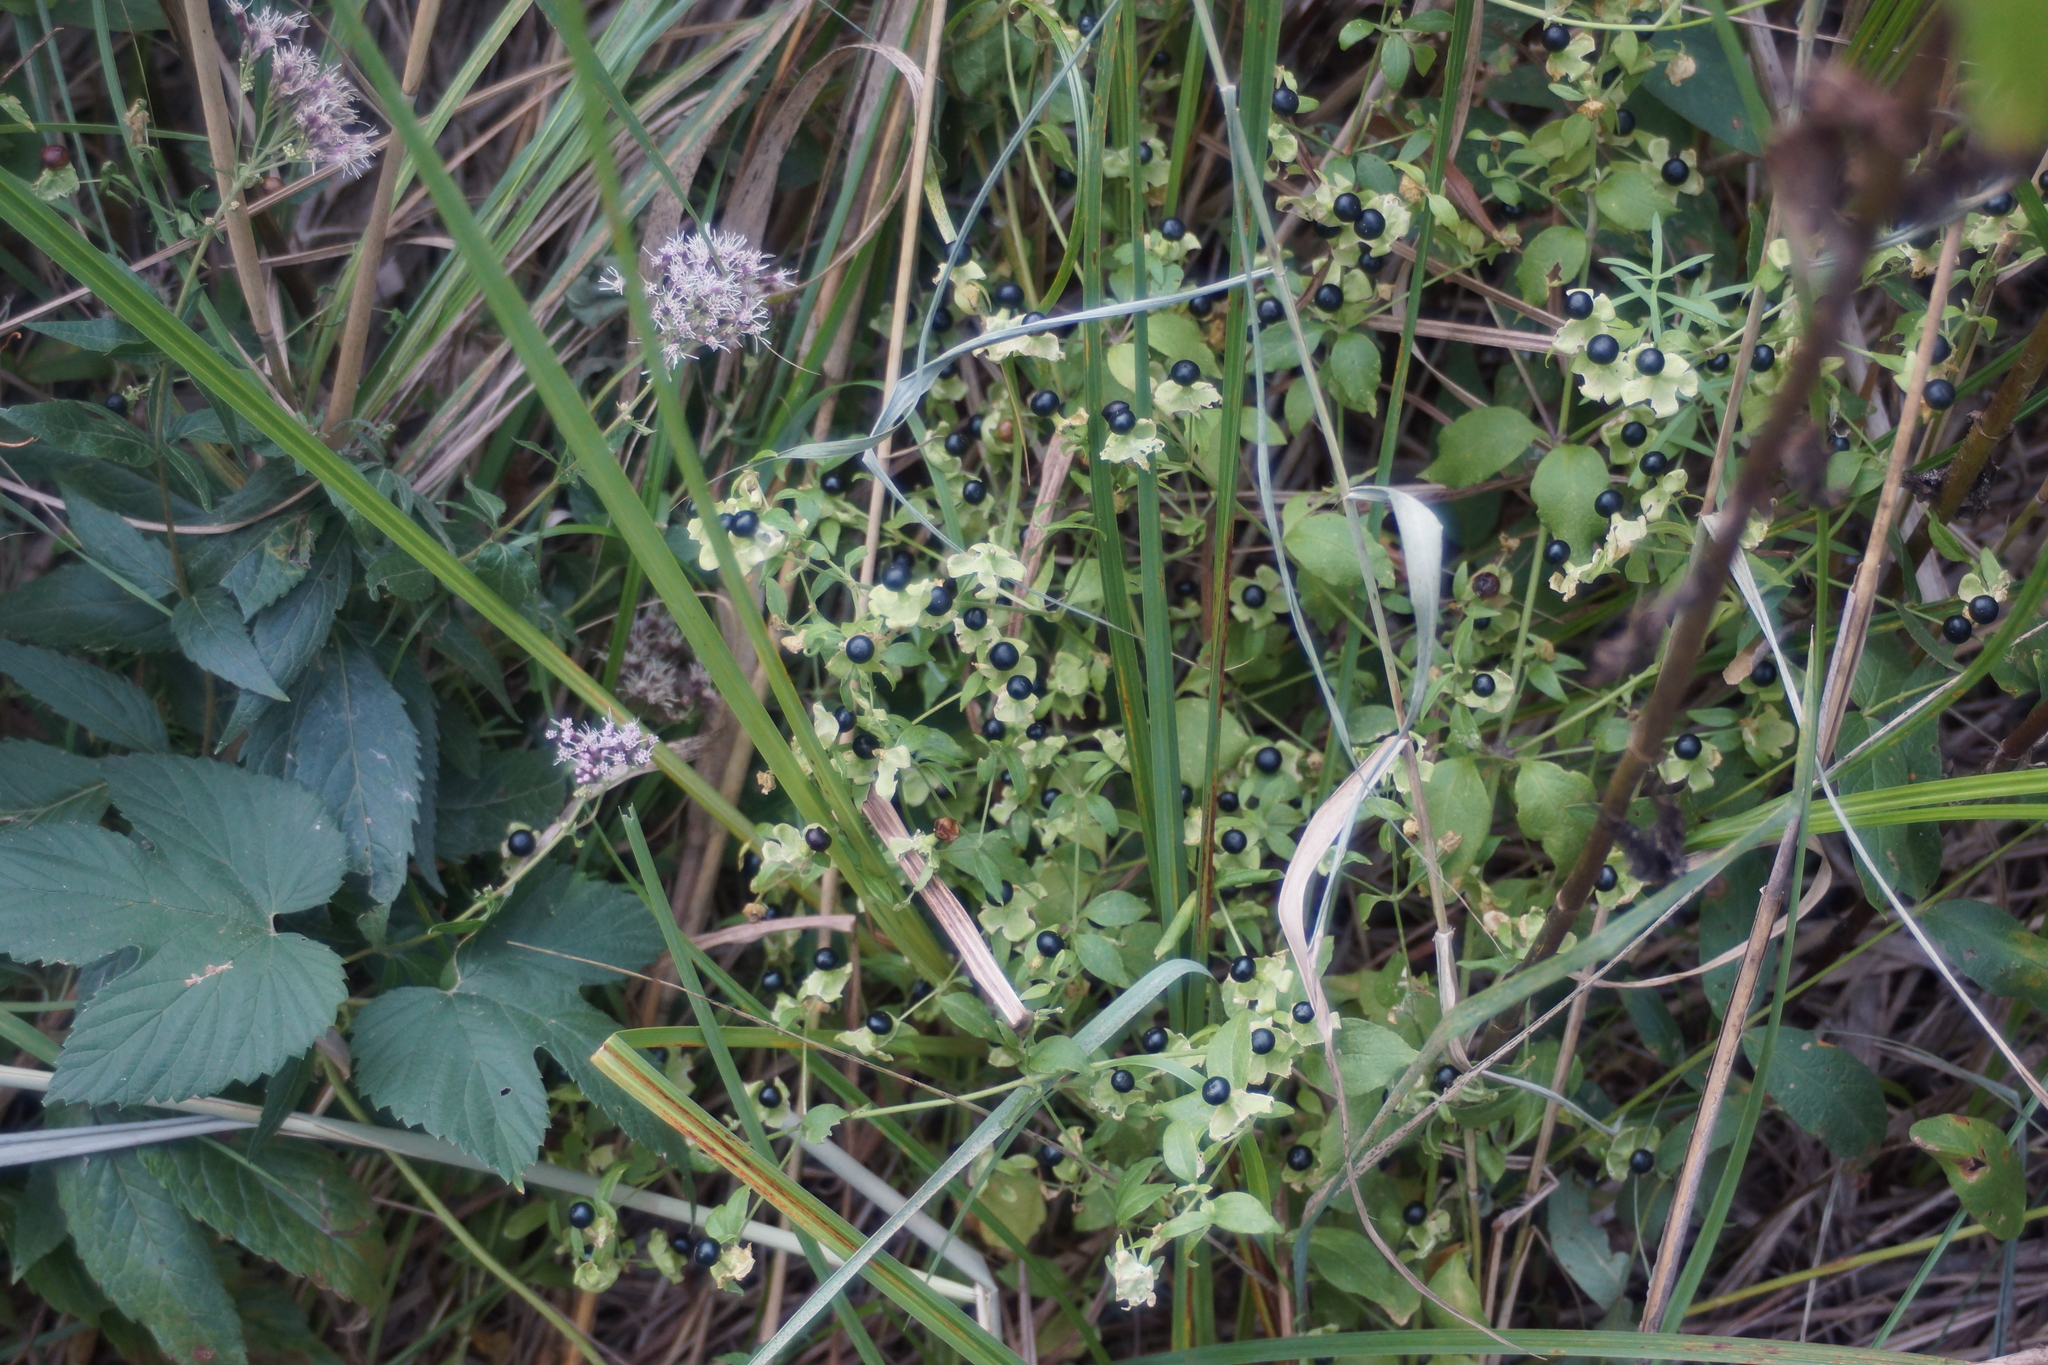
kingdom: Plantae
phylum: Tracheophyta
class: Magnoliopsida
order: Caryophyllales
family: Caryophyllaceae
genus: Silene
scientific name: Silene baccifera
